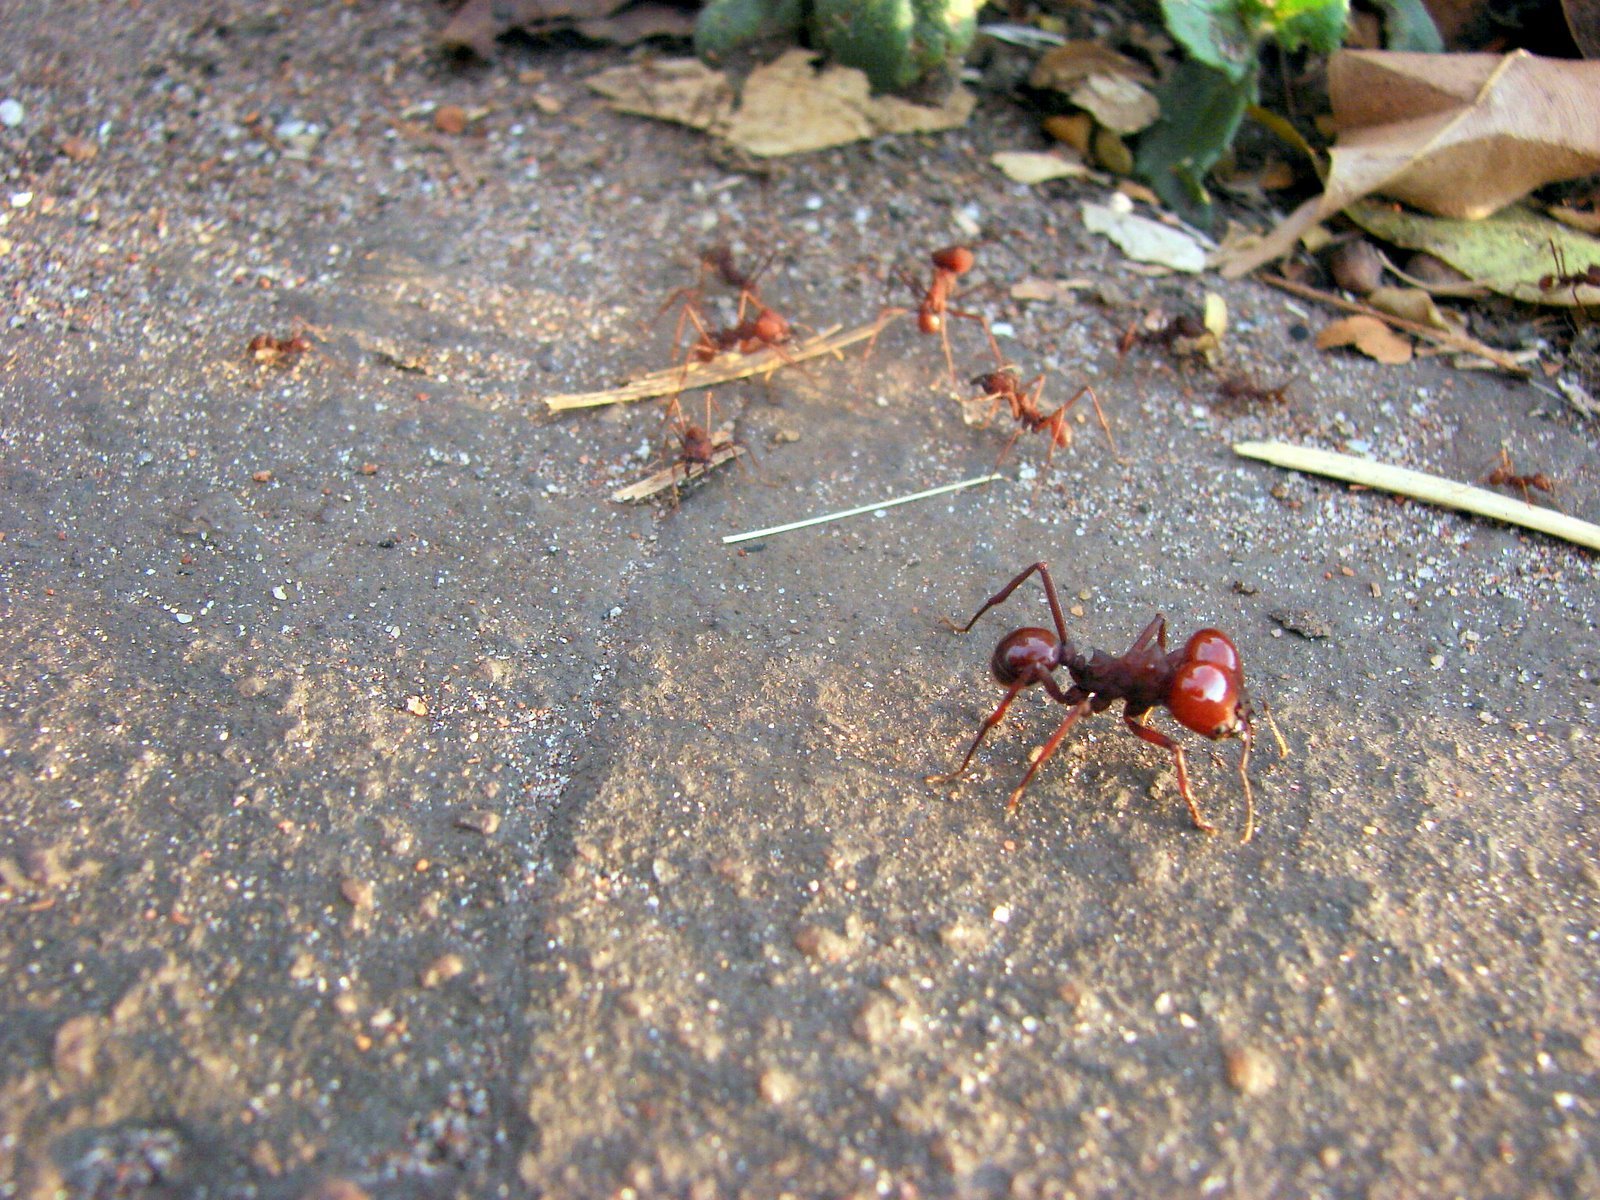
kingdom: Animalia
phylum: Arthropoda
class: Insecta
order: Hymenoptera
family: Formicidae
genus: Atta
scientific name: Atta laevigata
